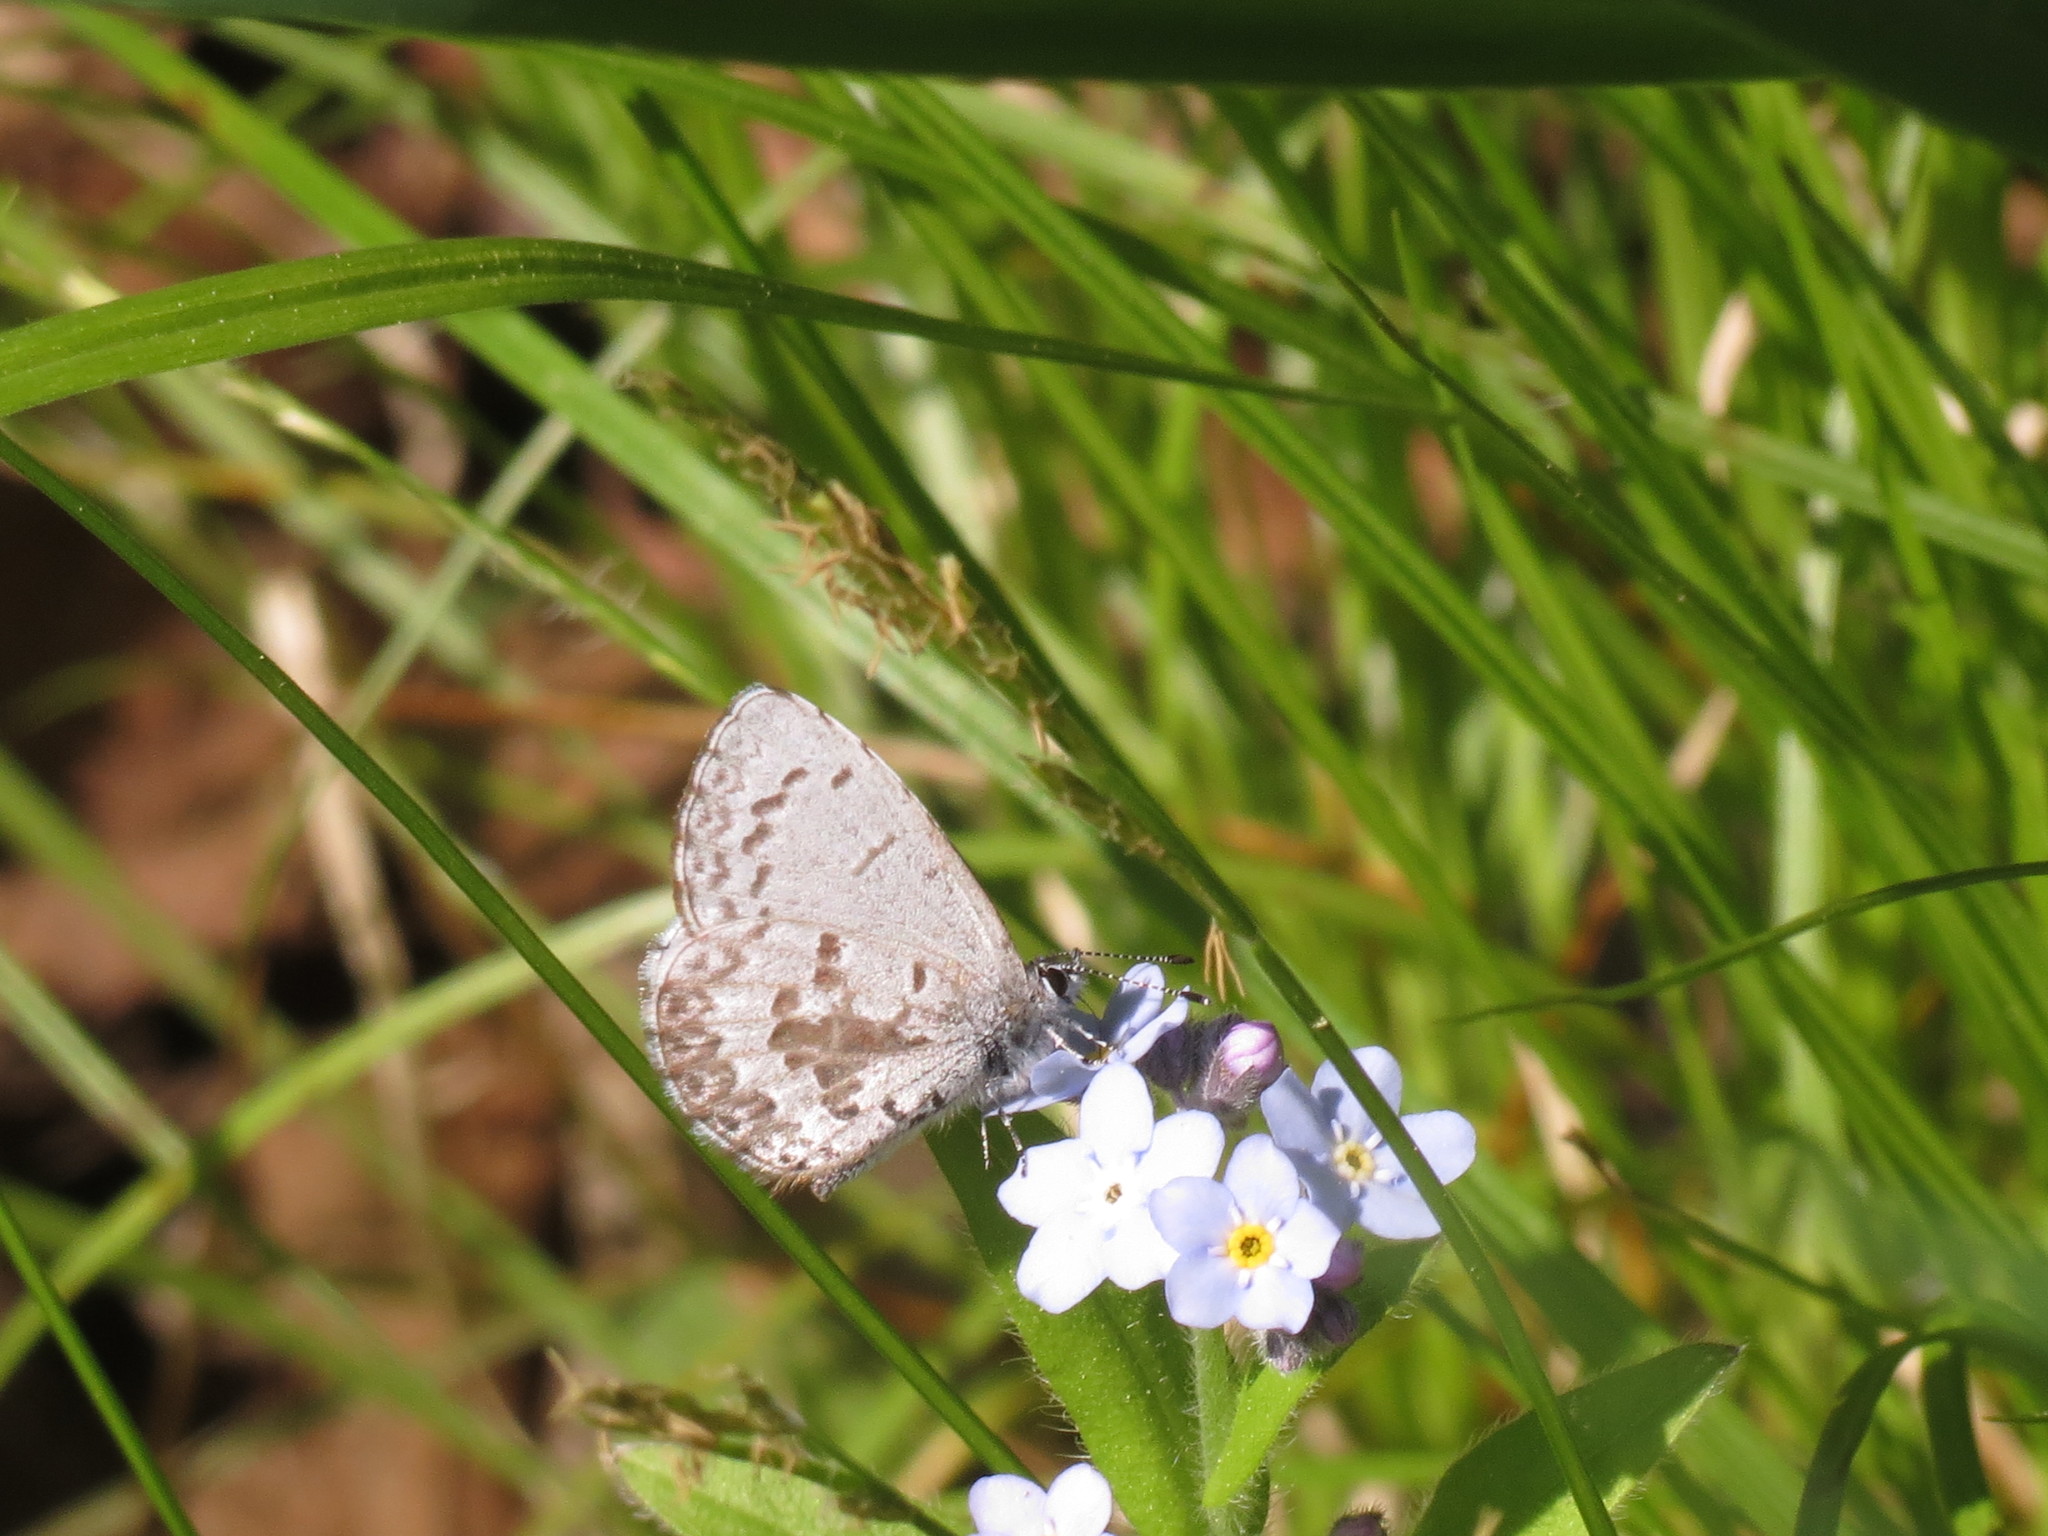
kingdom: Animalia
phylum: Arthropoda
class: Insecta
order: Lepidoptera
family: Lycaenidae
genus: Celastrina
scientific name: Celastrina lucia
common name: Lucia azure
